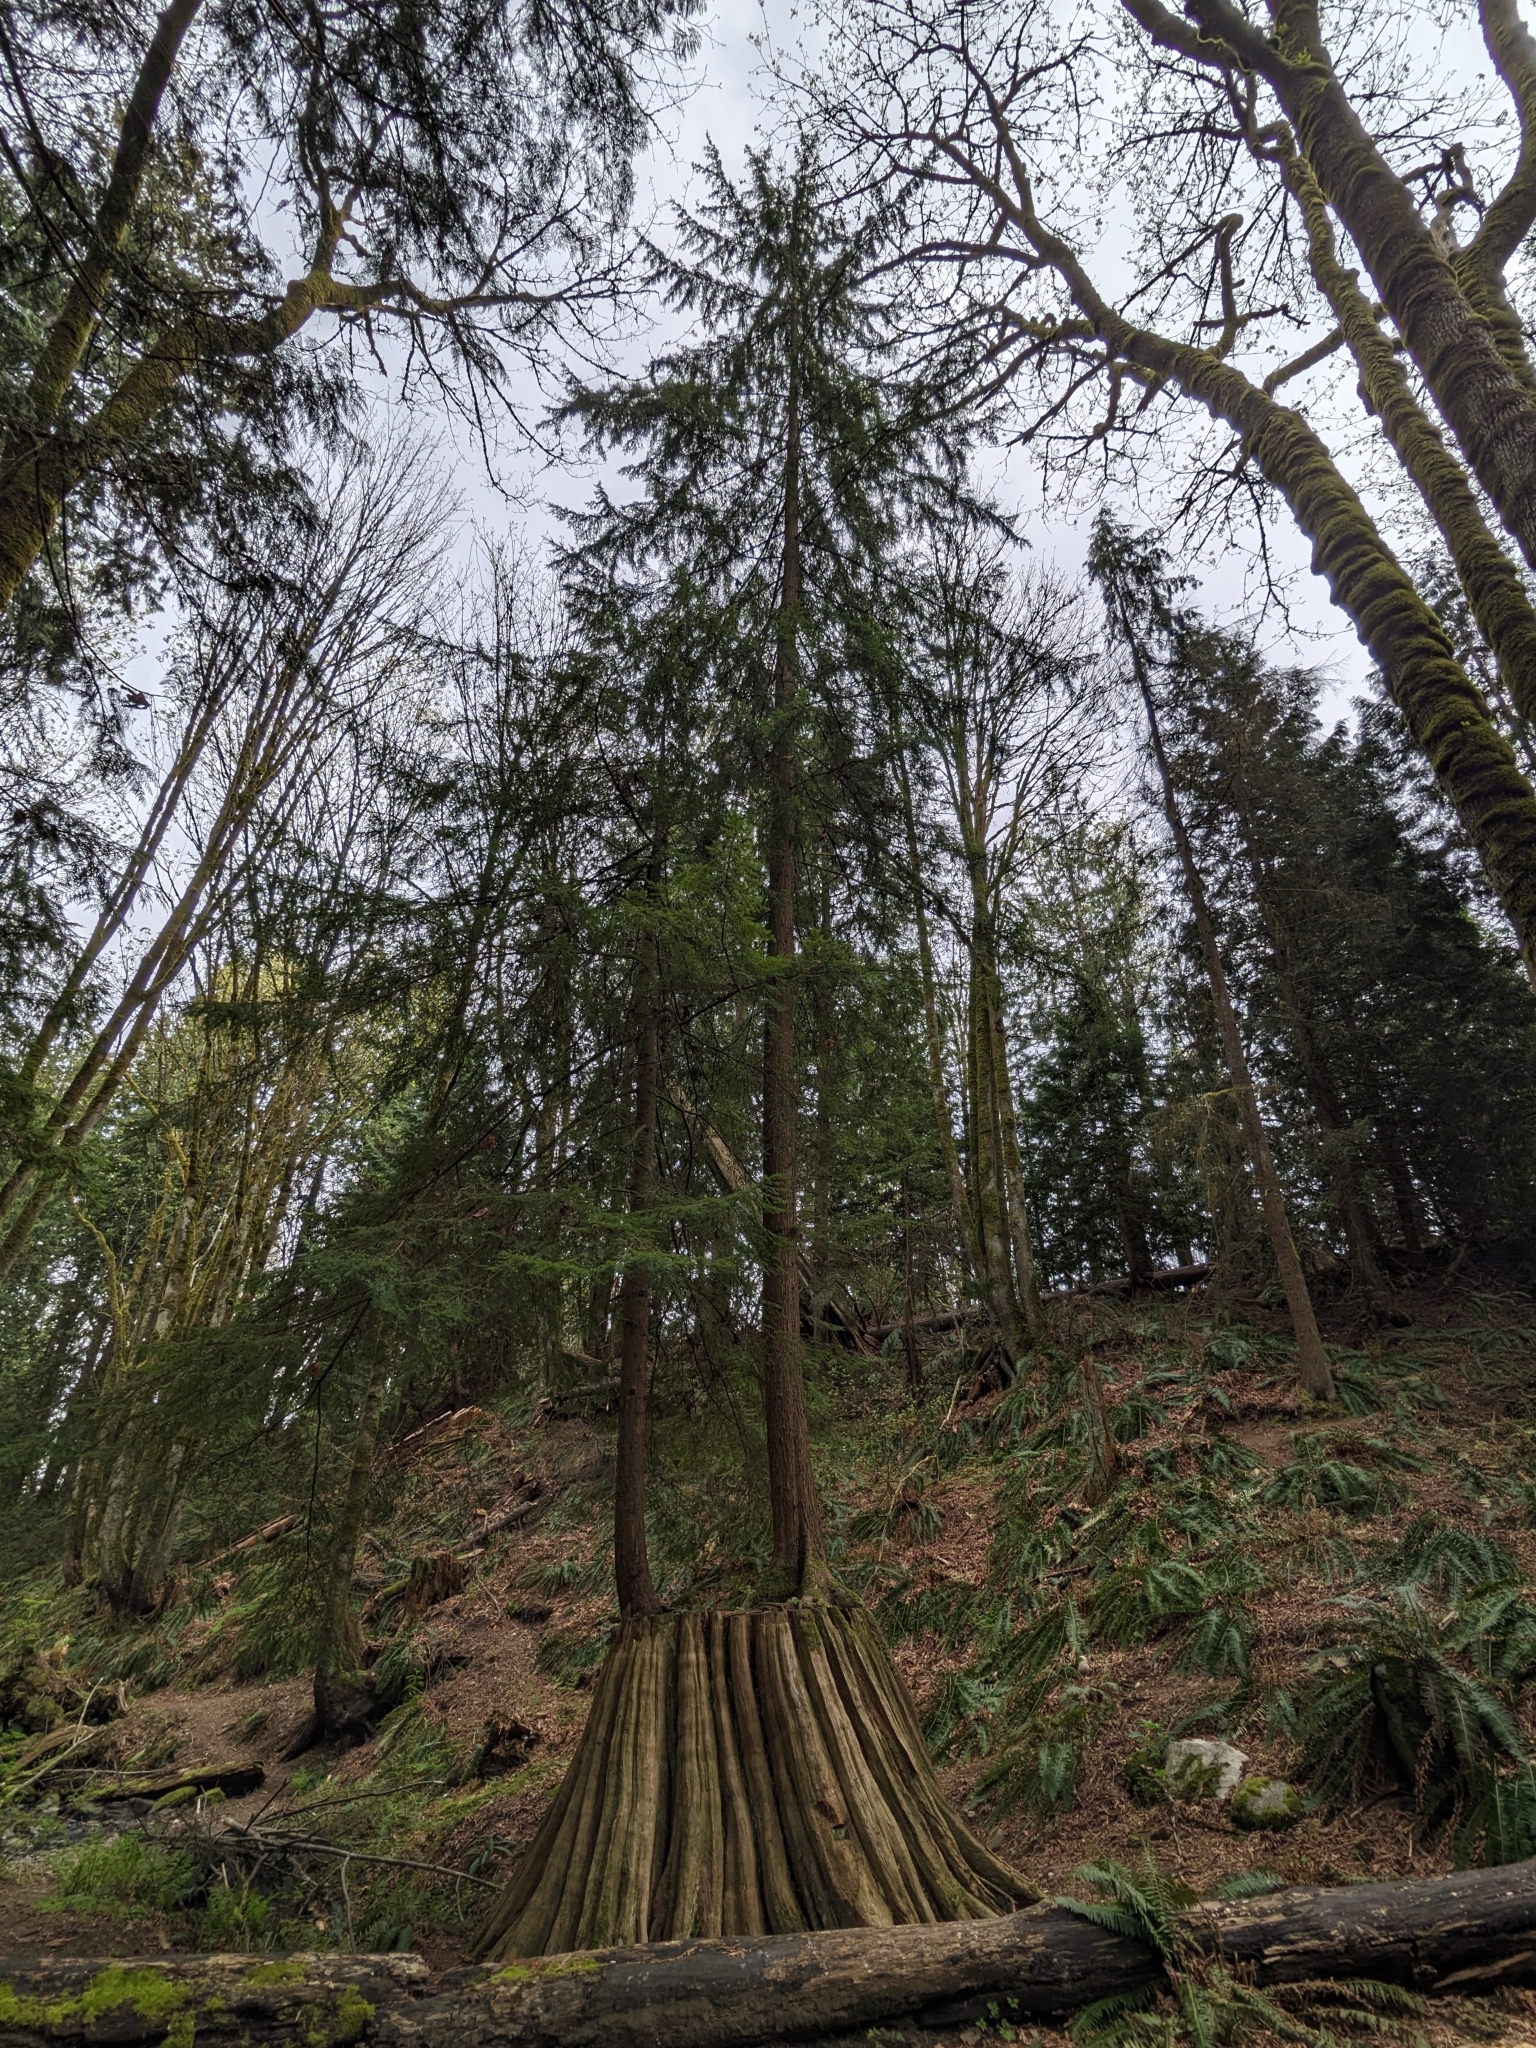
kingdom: Plantae
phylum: Tracheophyta
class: Pinopsida
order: Pinales
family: Pinaceae
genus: Tsuga
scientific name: Tsuga heterophylla
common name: Western hemlock
